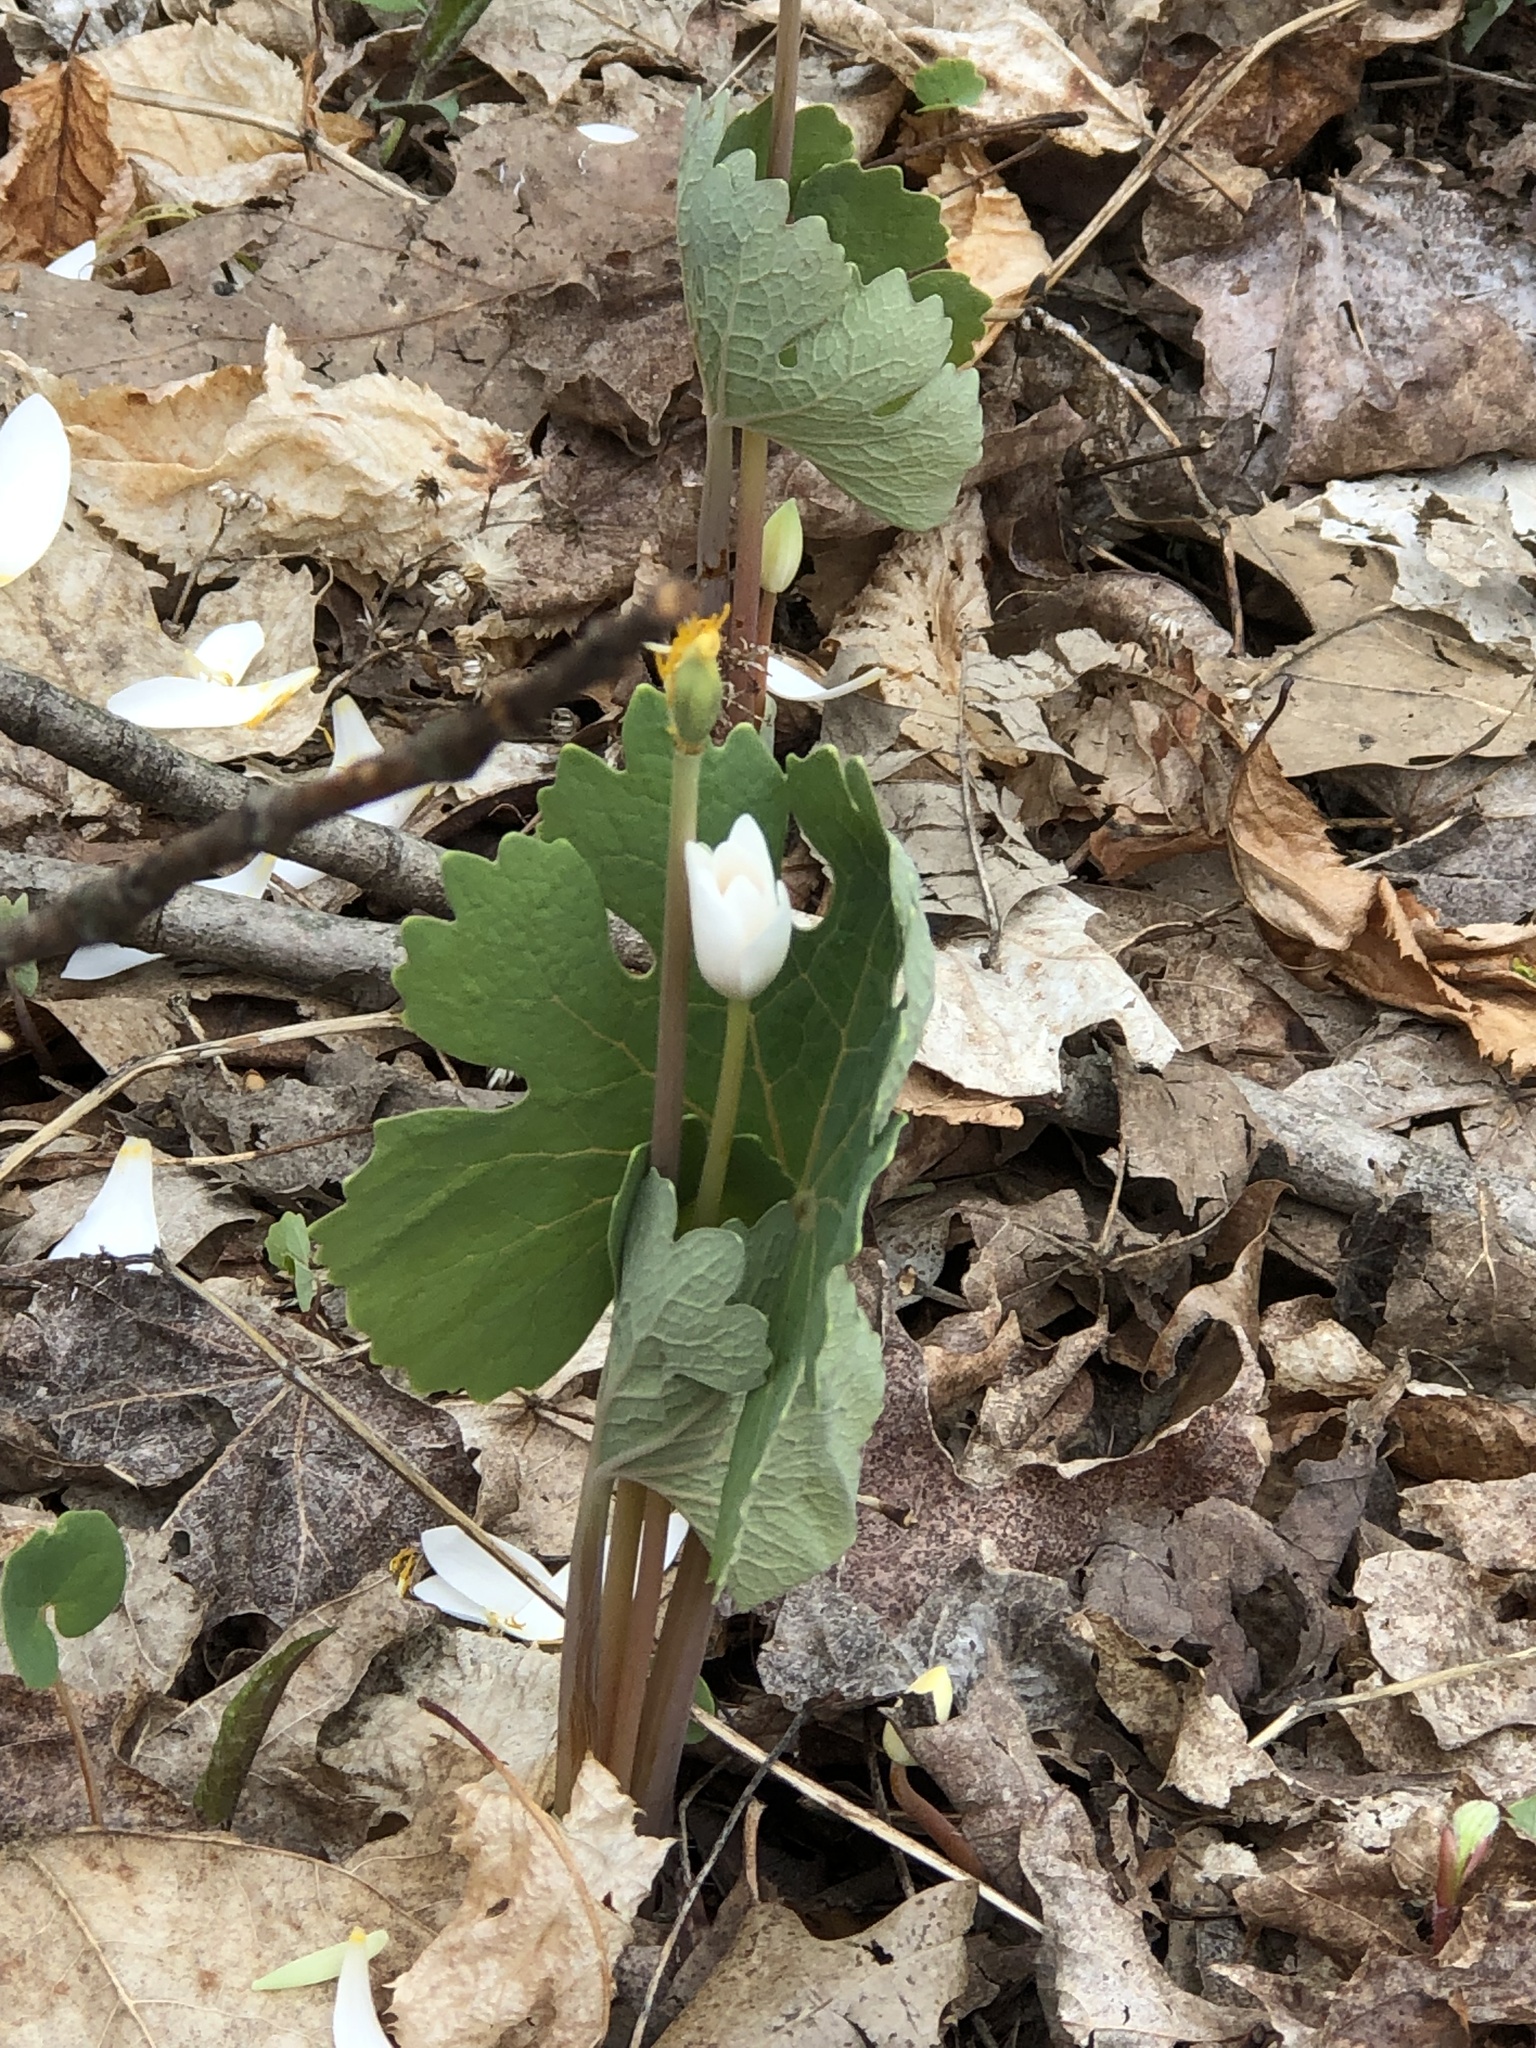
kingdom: Plantae
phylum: Tracheophyta
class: Magnoliopsida
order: Ranunculales
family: Papaveraceae
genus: Sanguinaria
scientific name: Sanguinaria canadensis
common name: Bloodroot
